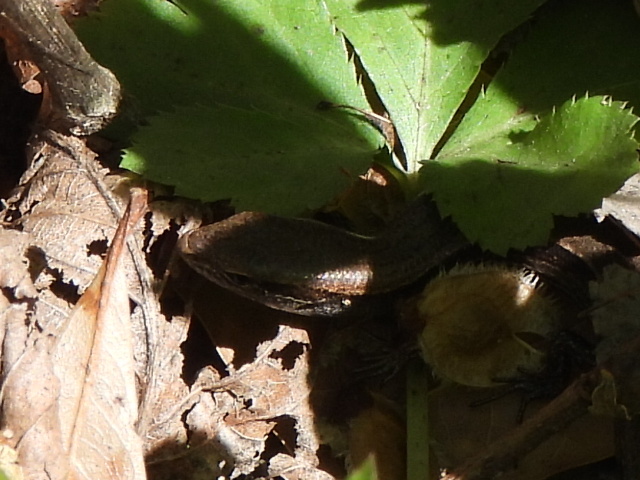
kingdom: Animalia
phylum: Chordata
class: Squamata
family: Scincidae
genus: Scincella
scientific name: Scincella lateralis
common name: Ground skink
